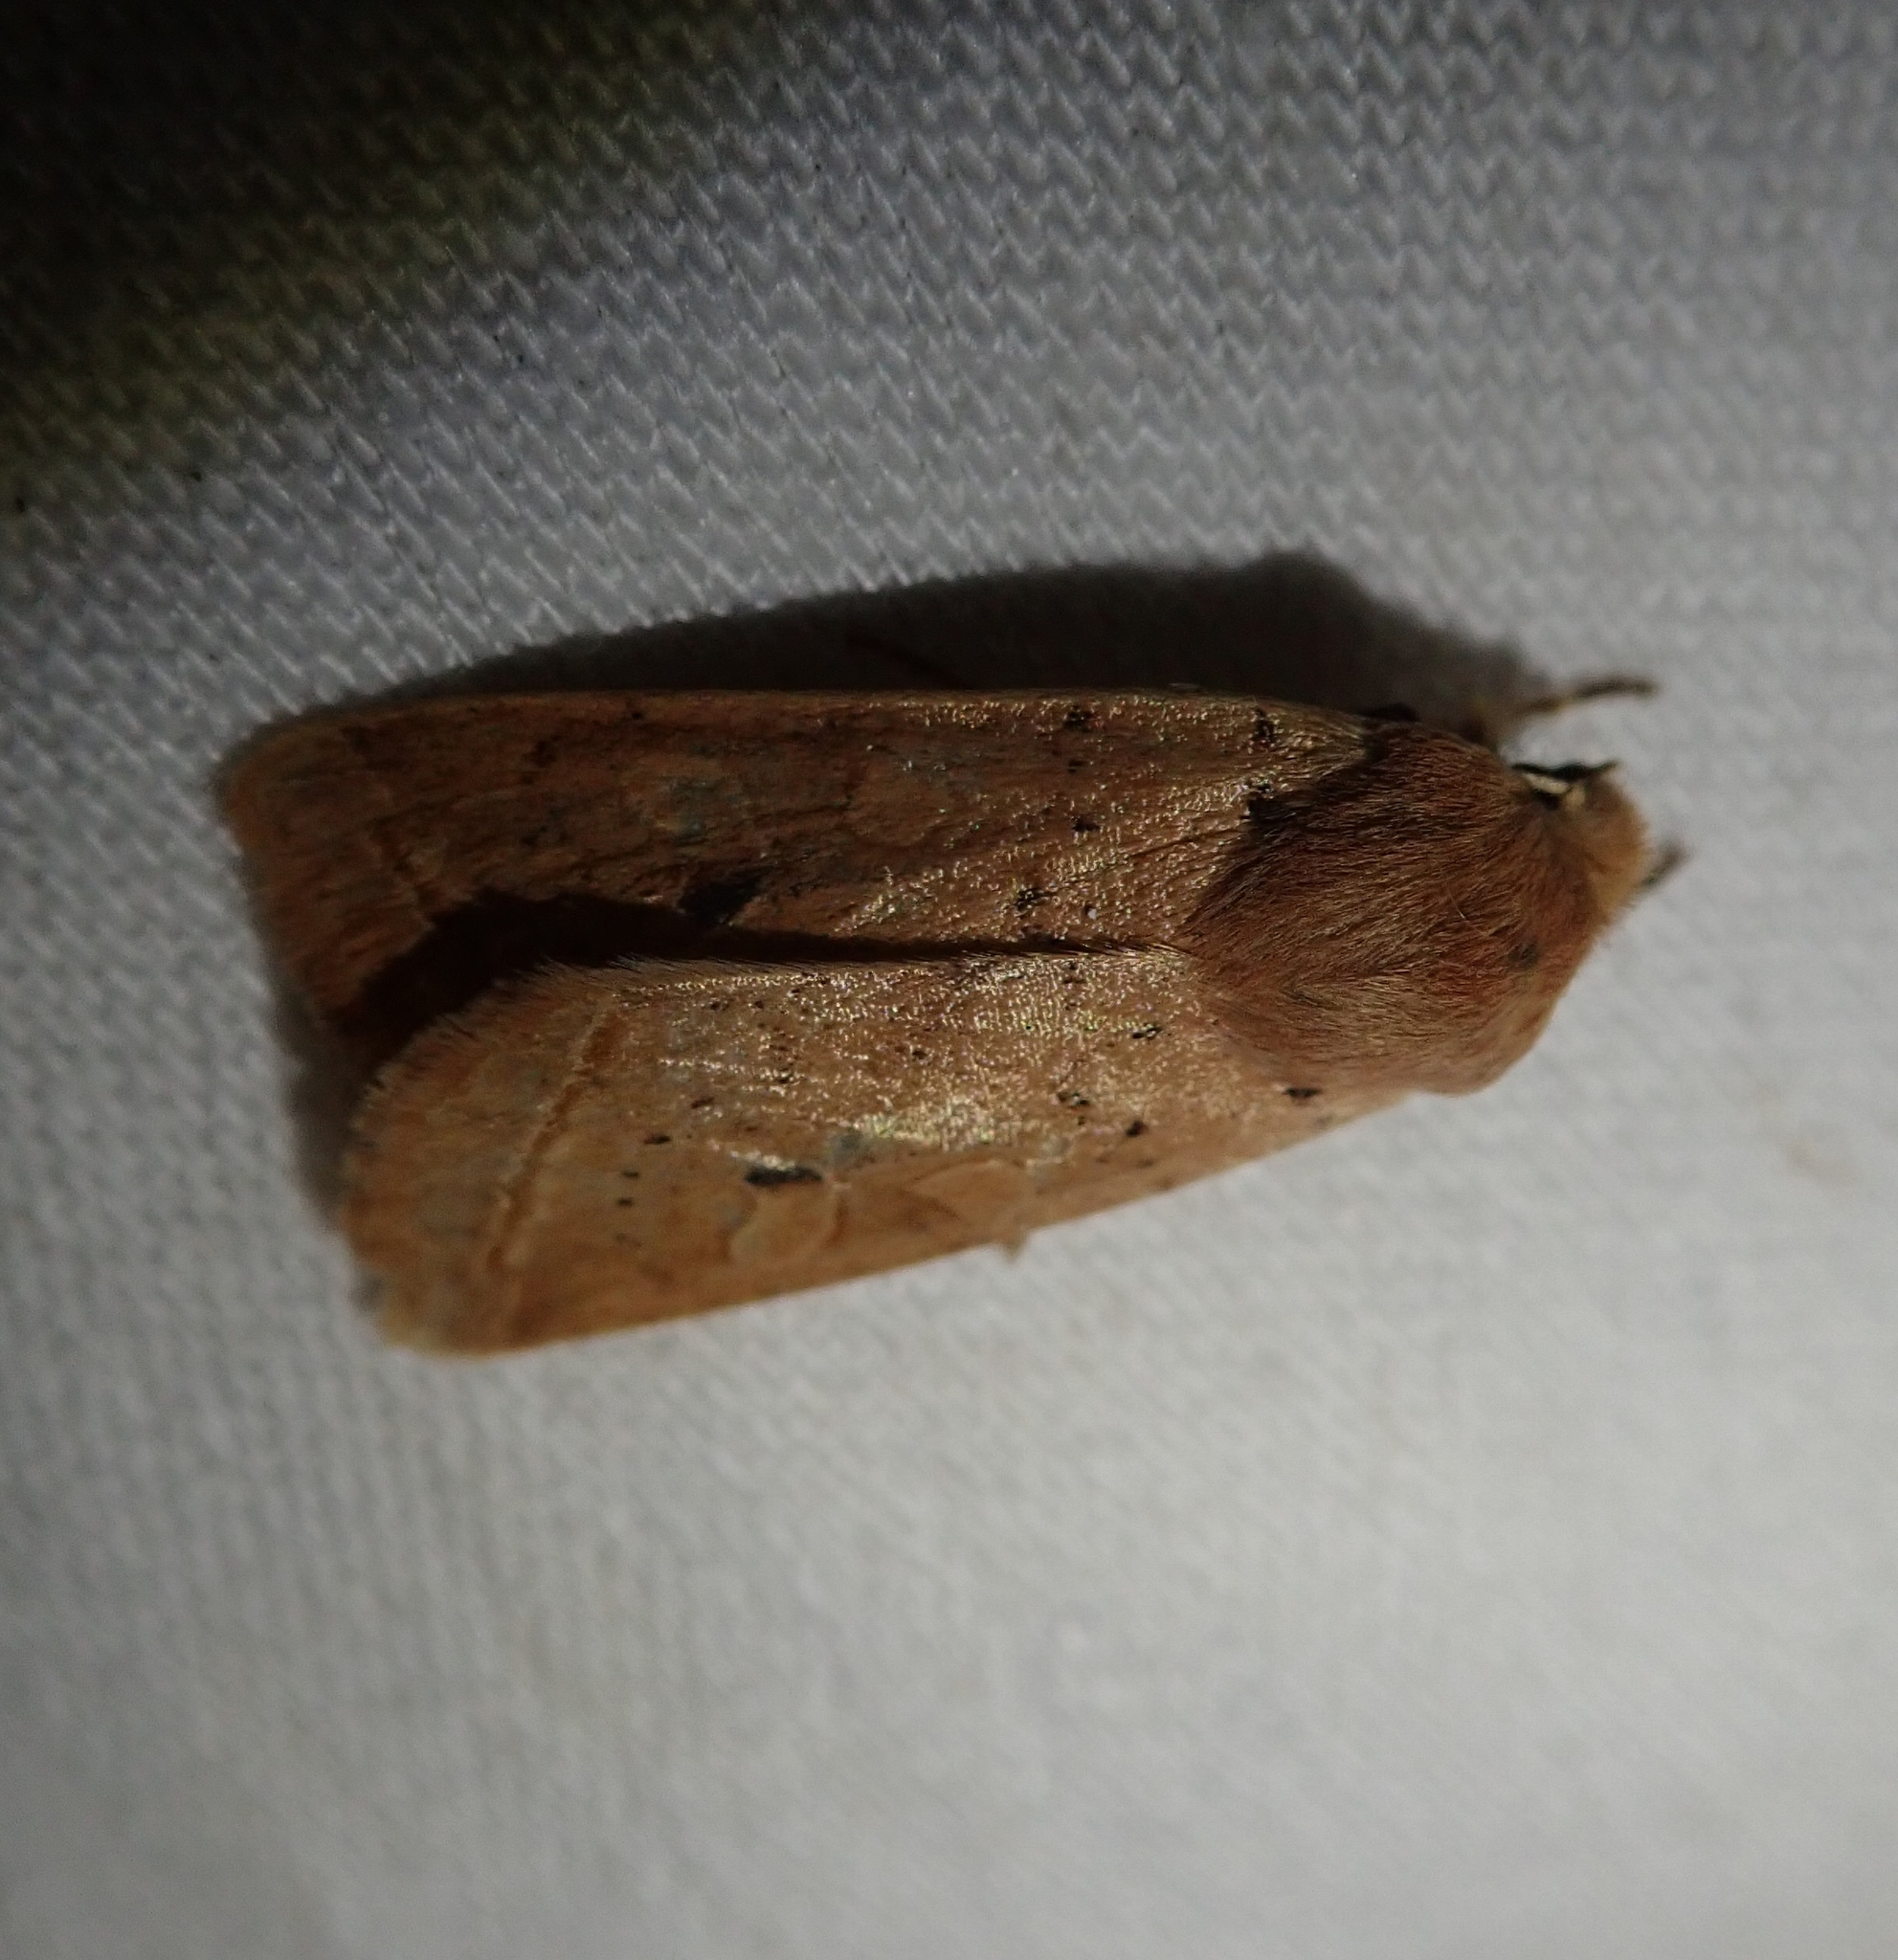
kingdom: Animalia
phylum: Arthropoda
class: Insecta
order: Lepidoptera
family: Noctuidae
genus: Agrochola
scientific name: Agrochola macilenta
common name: Yellow-line quaker
